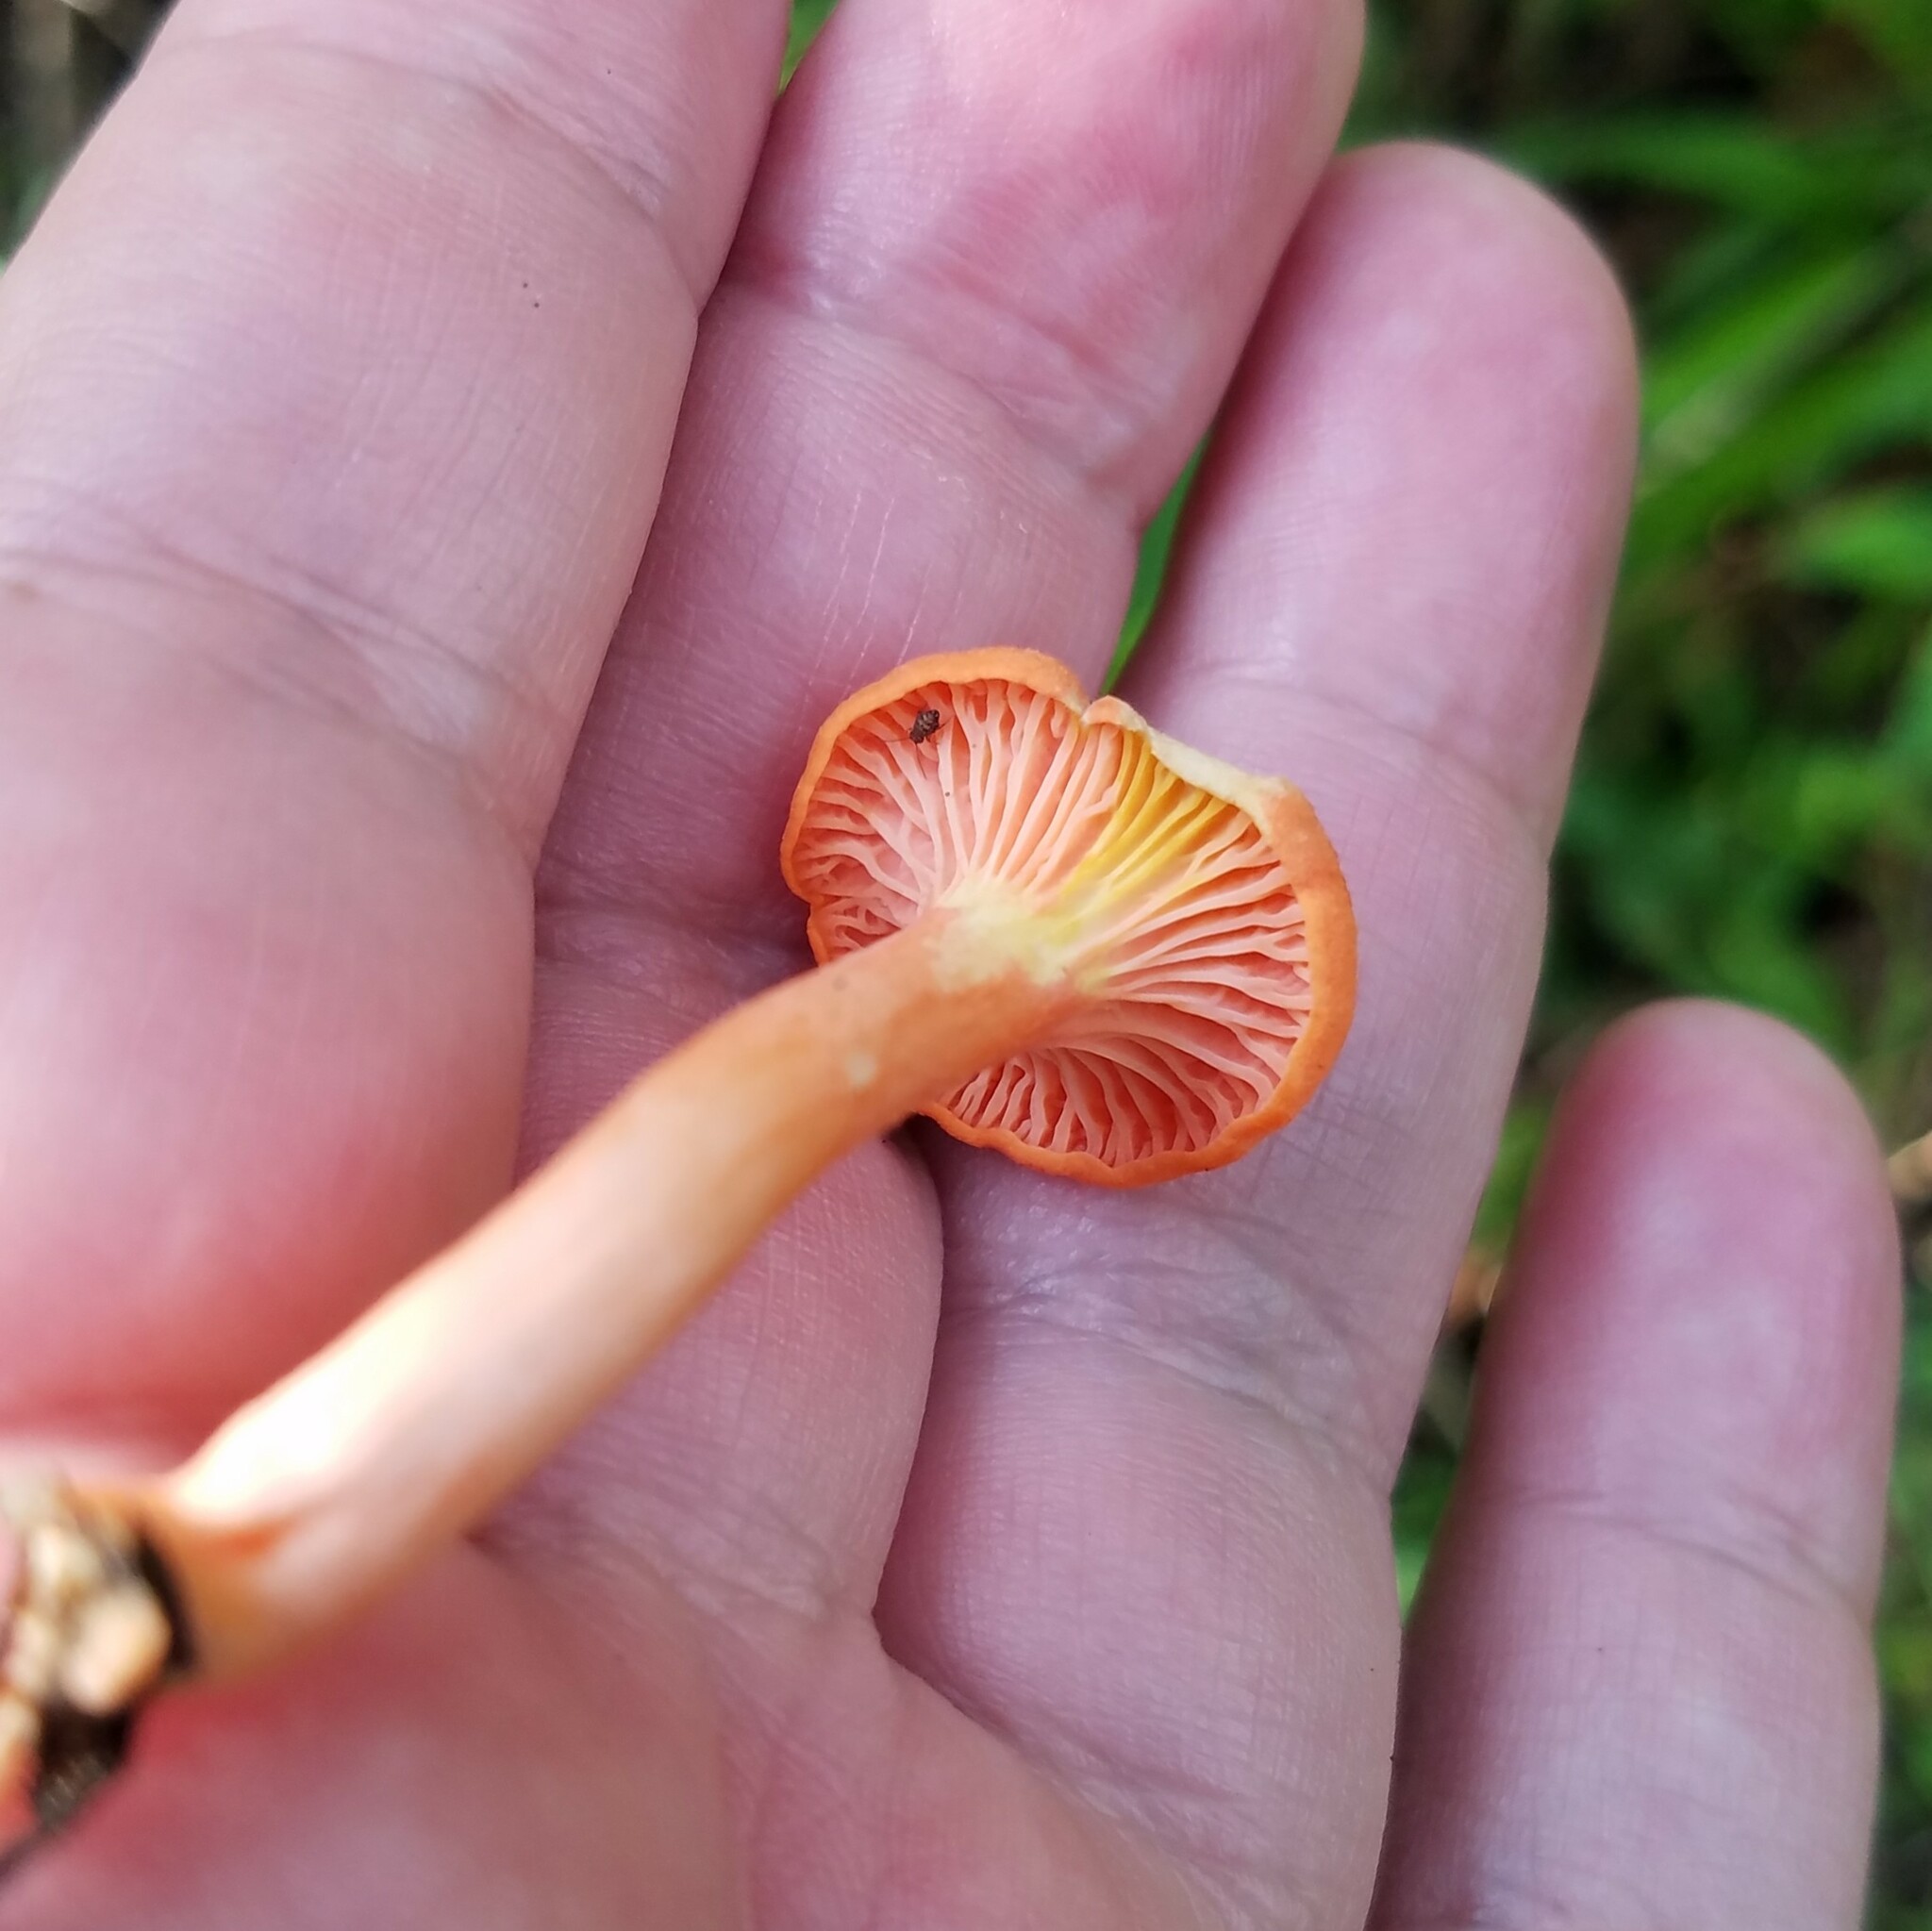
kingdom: Fungi
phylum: Basidiomycota
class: Agaricomycetes
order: Cantharellales
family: Hydnaceae
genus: Cantharellus
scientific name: Cantharellus cinnabarinus
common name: Cinnabar chanterelle
